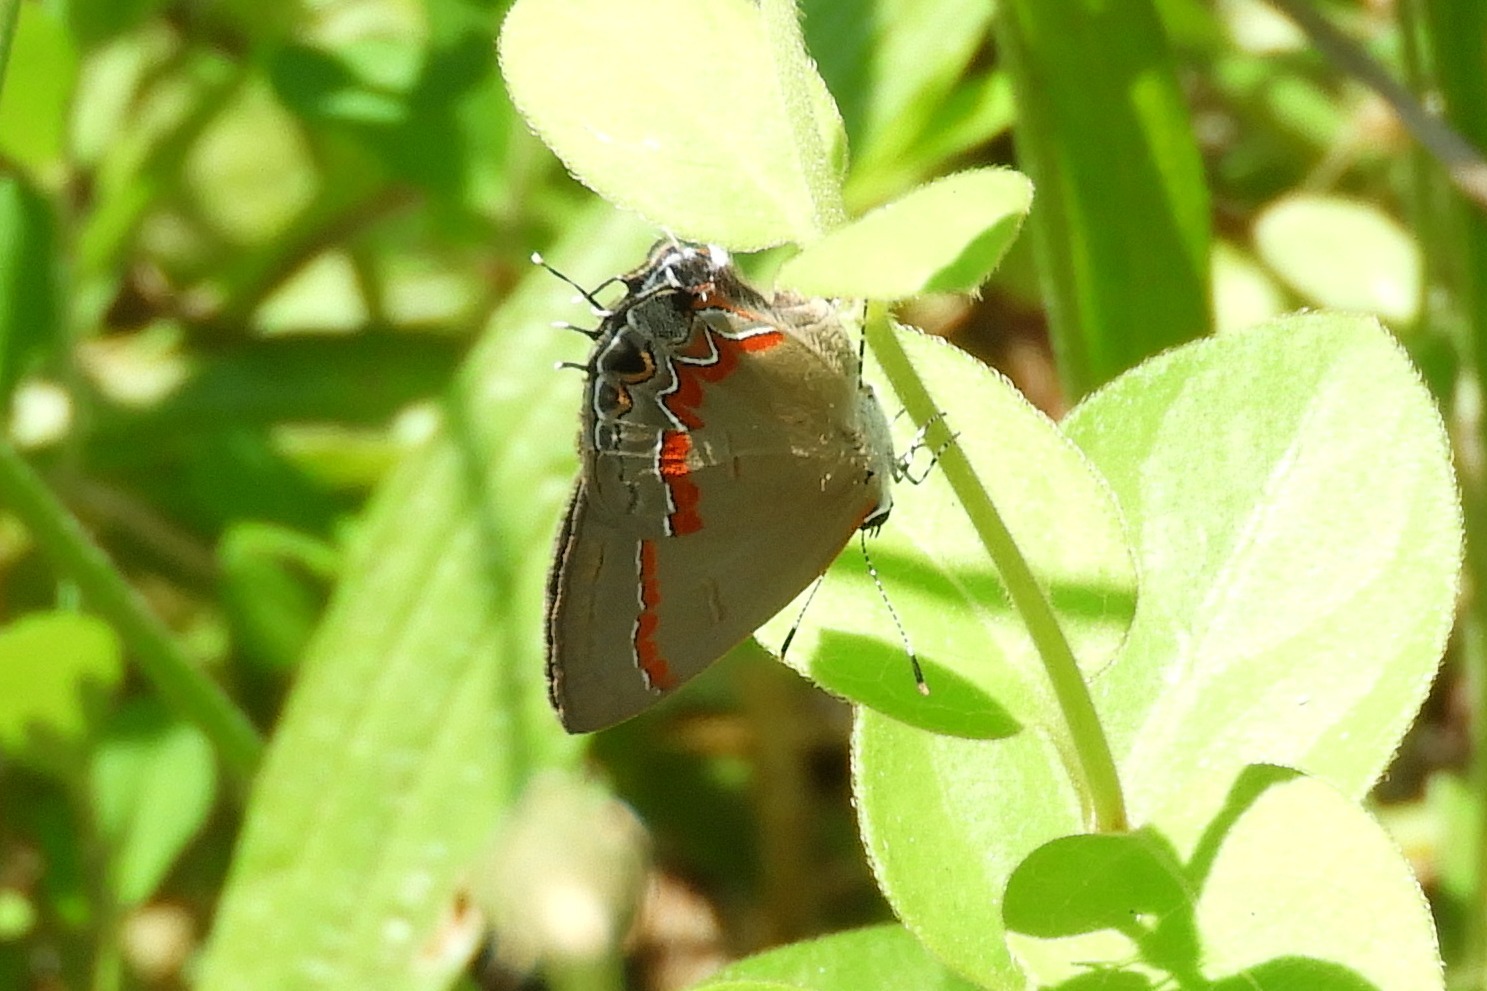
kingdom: Animalia
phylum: Arthropoda
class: Insecta
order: Lepidoptera
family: Lycaenidae
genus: Calycopis
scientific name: Calycopis cecrops
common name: Red-banded hairstreak
